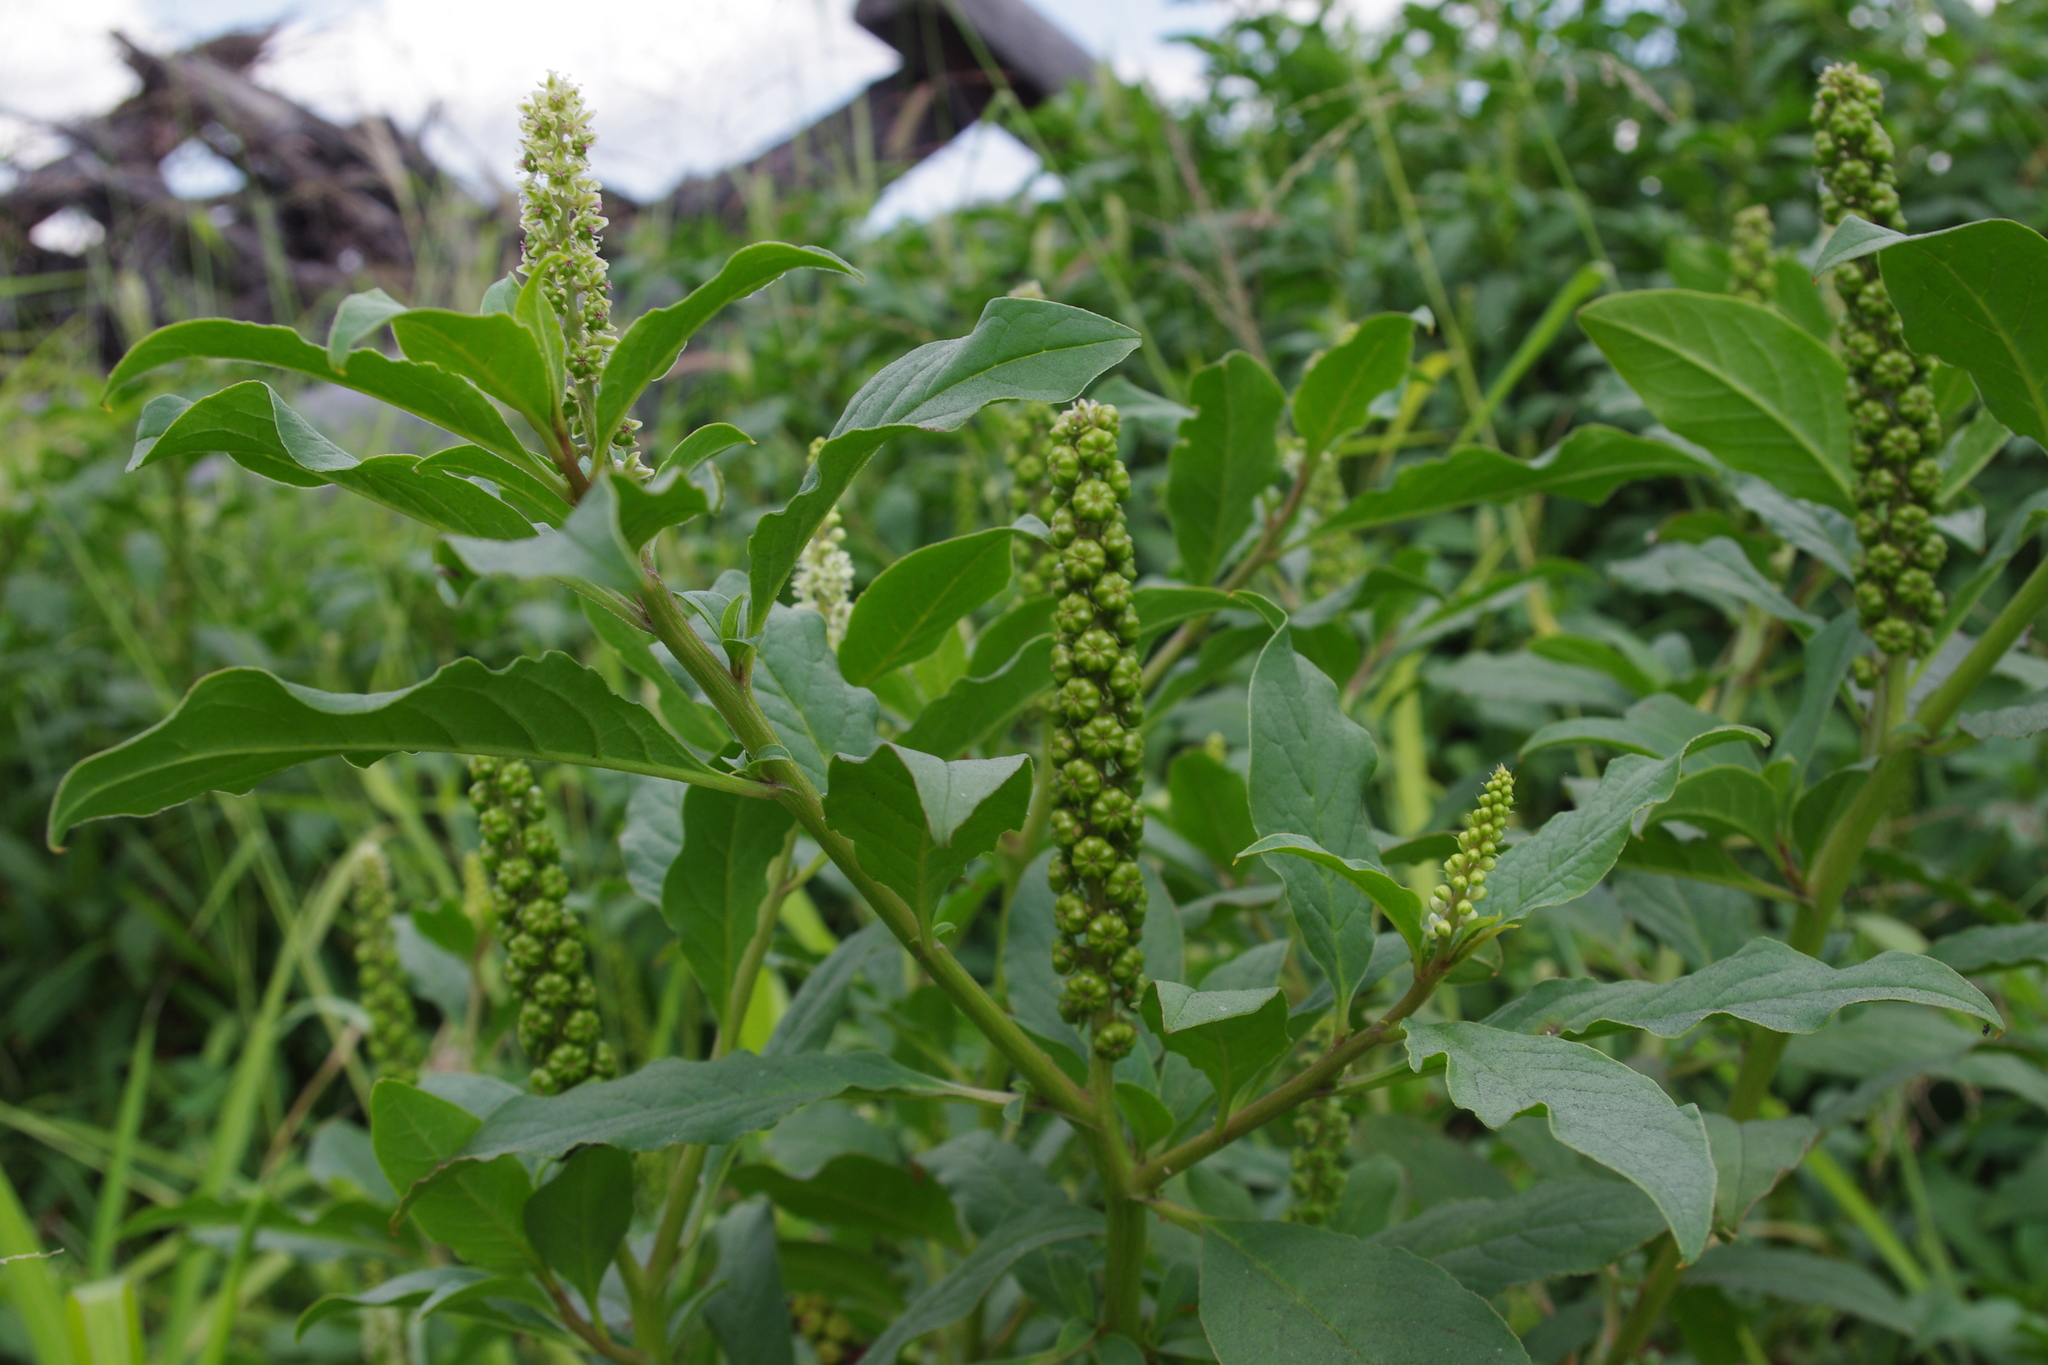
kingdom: Plantae
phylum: Tracheophyta
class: Magnoliopsida
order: Caryophyllales
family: Phytolaccaceae
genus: Phytolacca
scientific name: Phytolacca icosandra
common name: Button pokeweed
